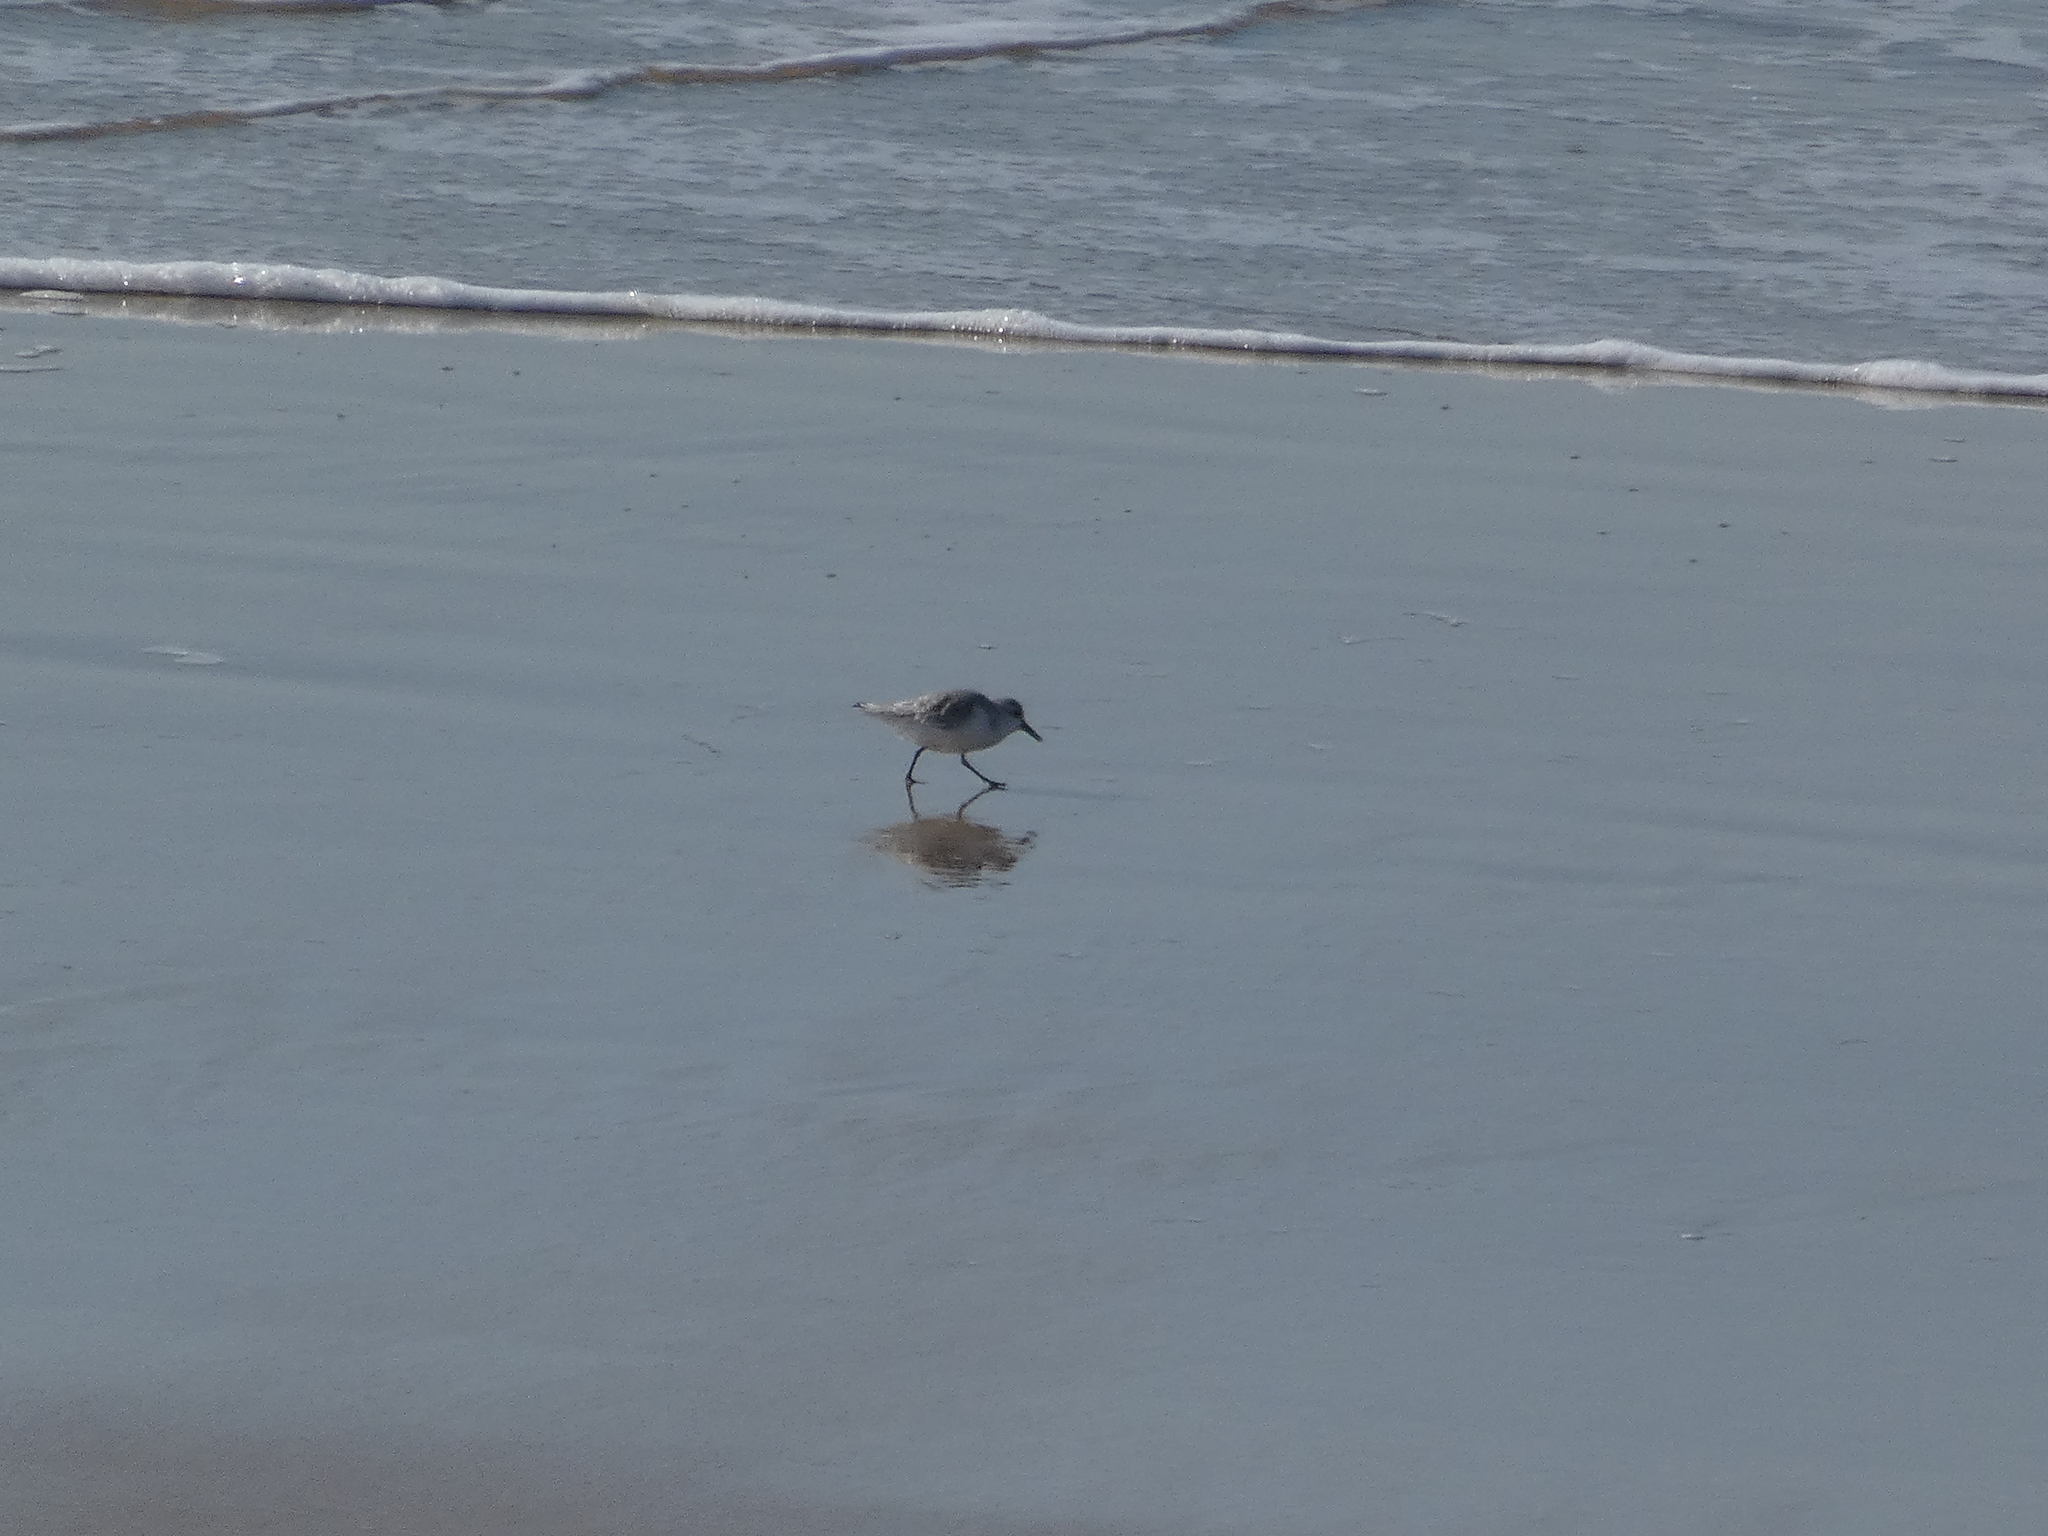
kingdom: Animalia
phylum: Chordata
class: Aves
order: Charadriiformes
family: Scolopacidae
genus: Calidris
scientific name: Calidris alba
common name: Sanderling
